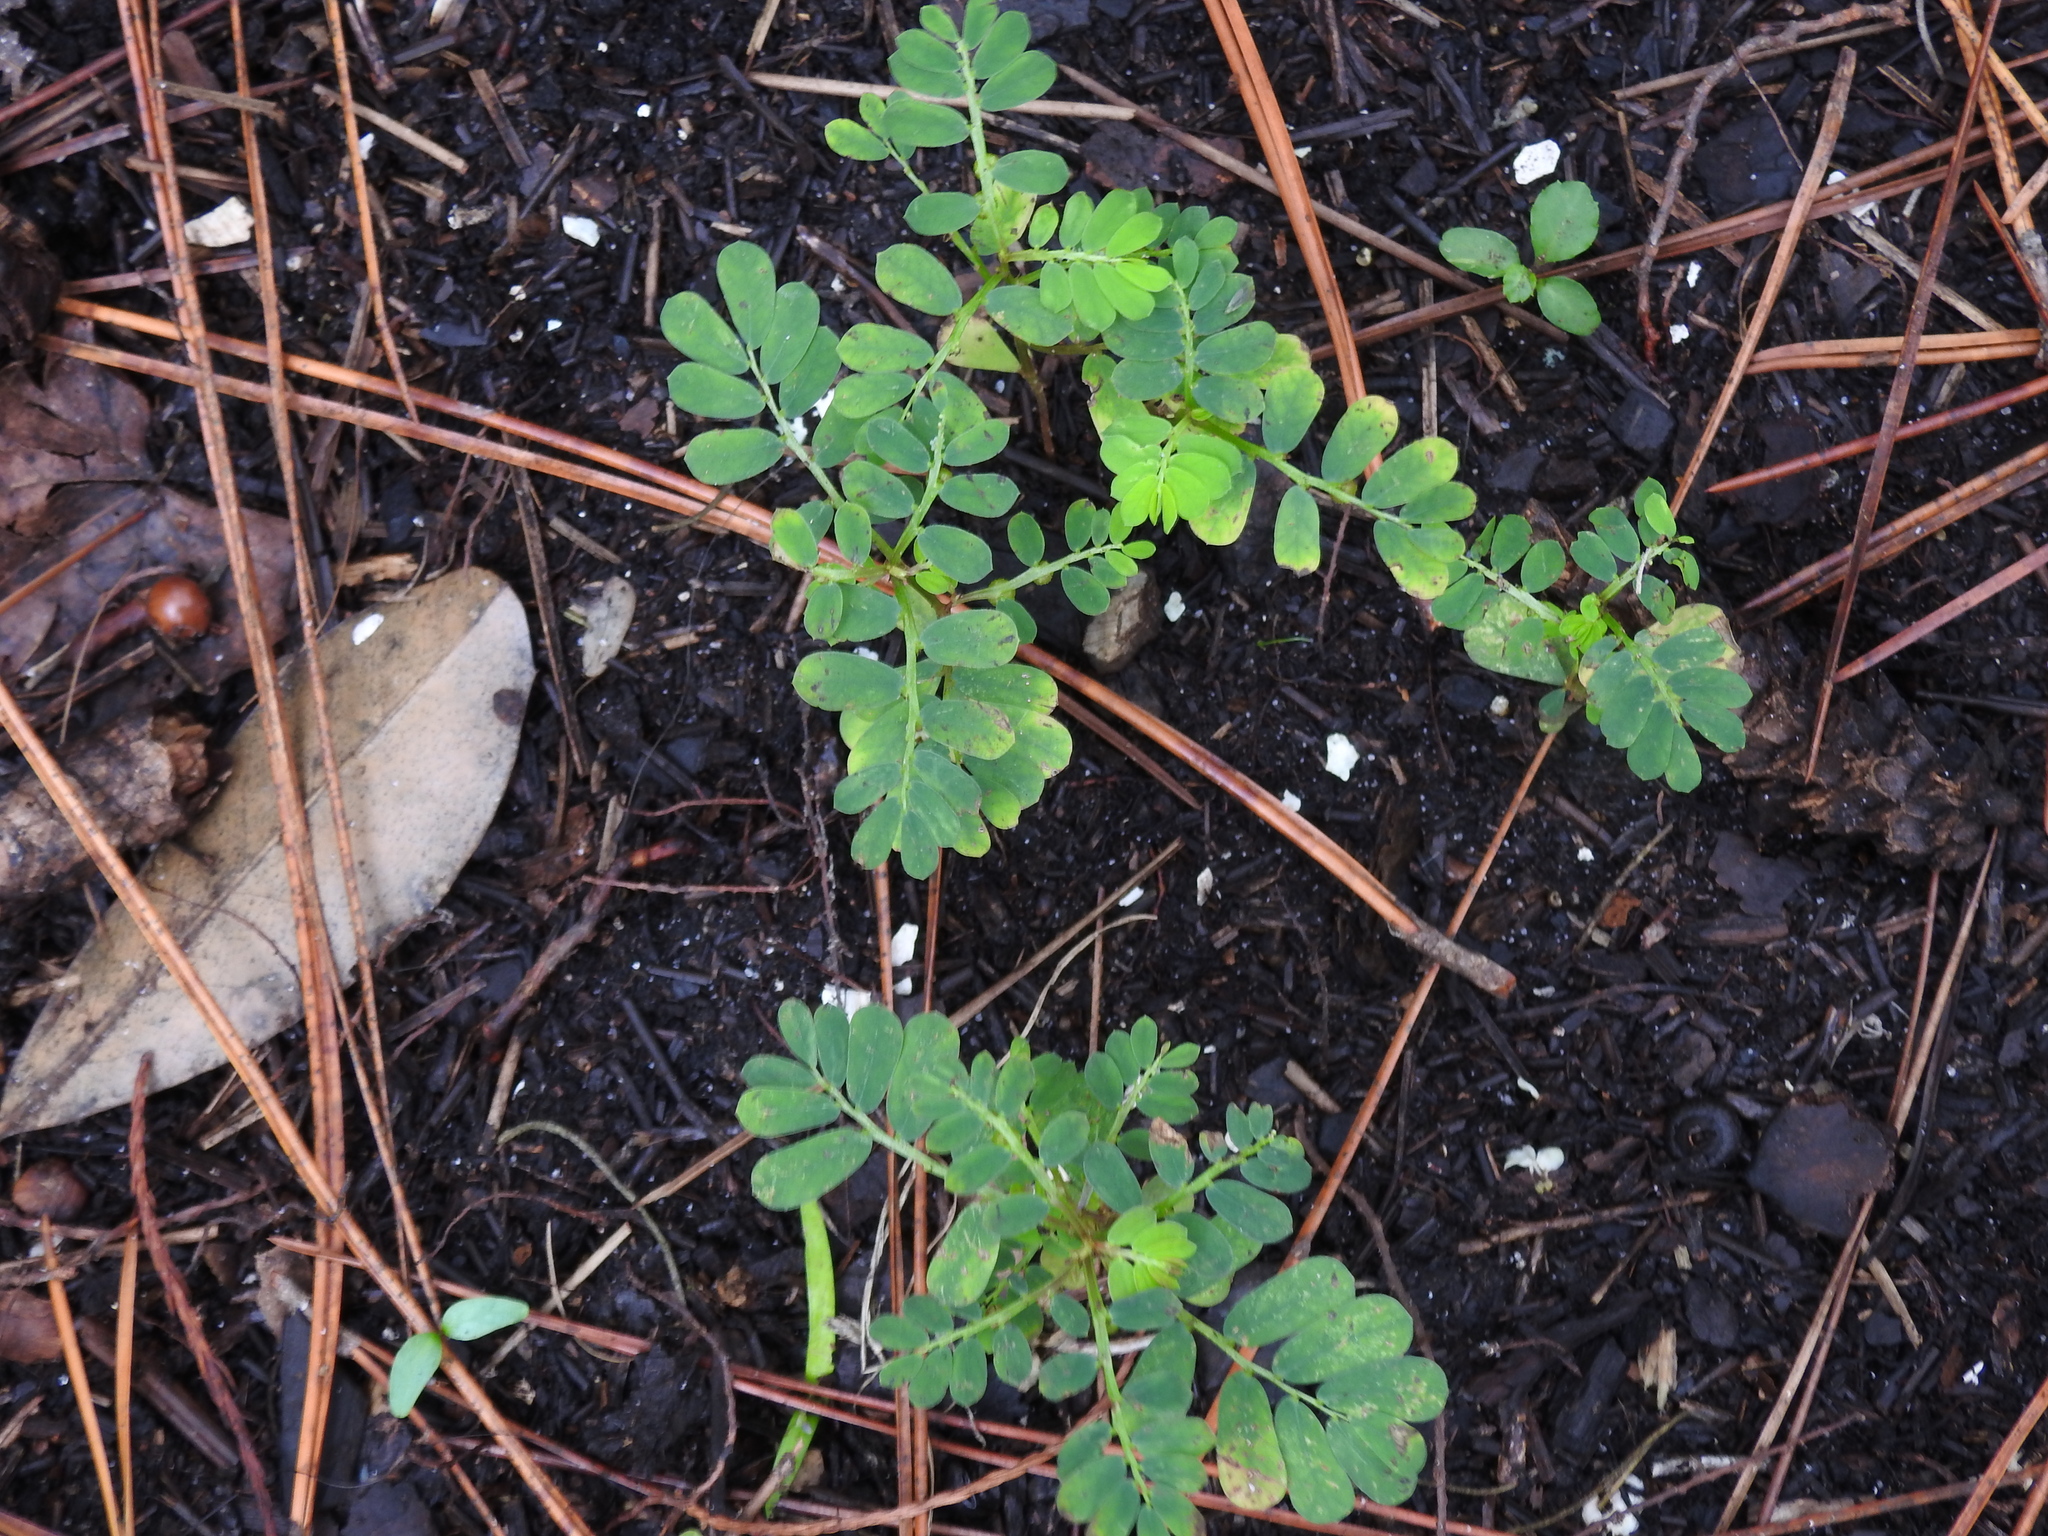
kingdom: Plantae
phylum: Tracheophyta
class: Magnoliopsida
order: Malpighiales
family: Phyllanthaceae
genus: Phyllanthus
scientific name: Phyllanthus urinaria
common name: Chamber bitter
